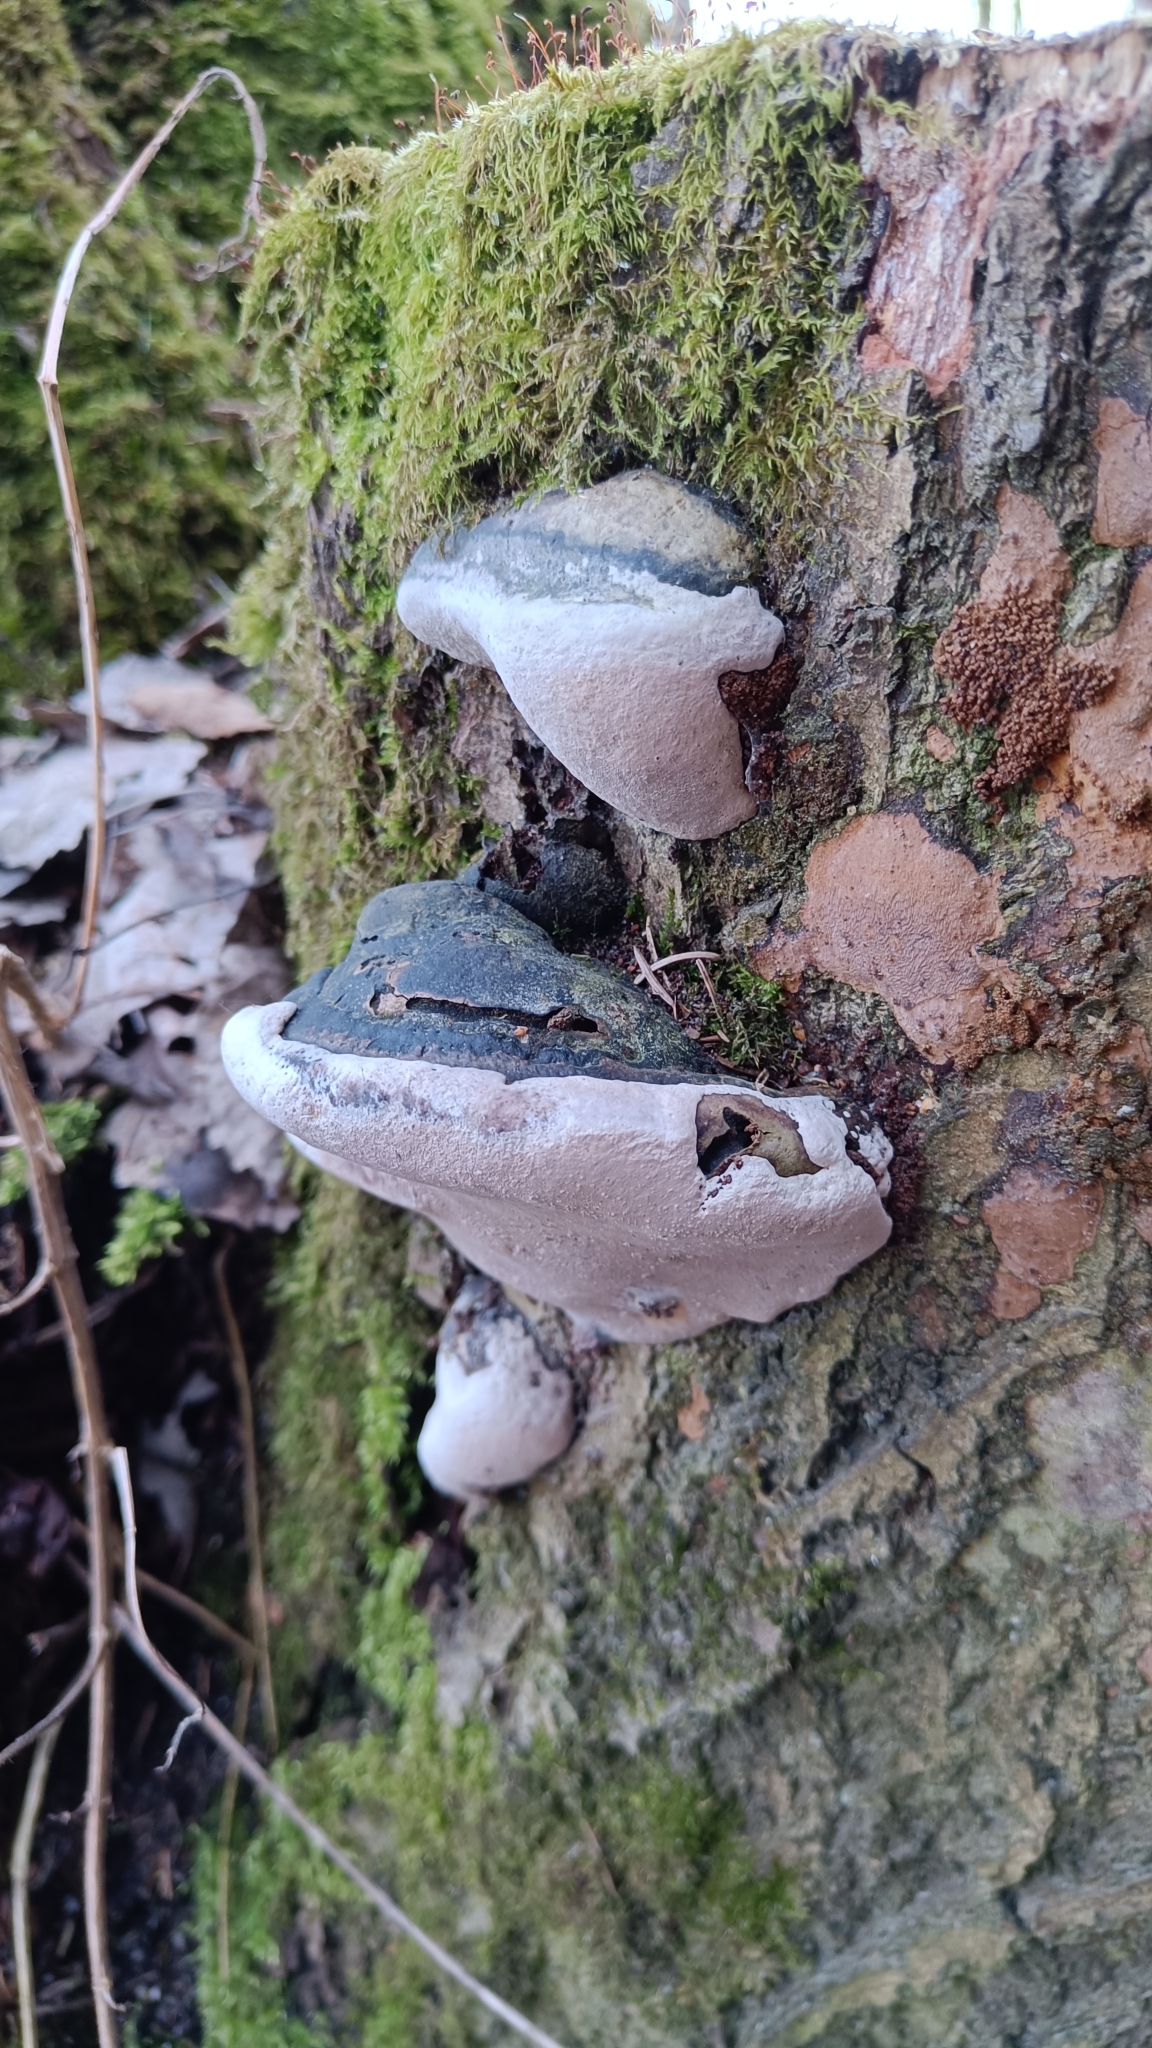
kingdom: Fungi
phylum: Basidiomycota
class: Agaricomycetes
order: Hymenochaetales
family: Hymenochaetaceae
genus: Phellinus
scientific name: Phellinus igniarius
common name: Willow bracket
